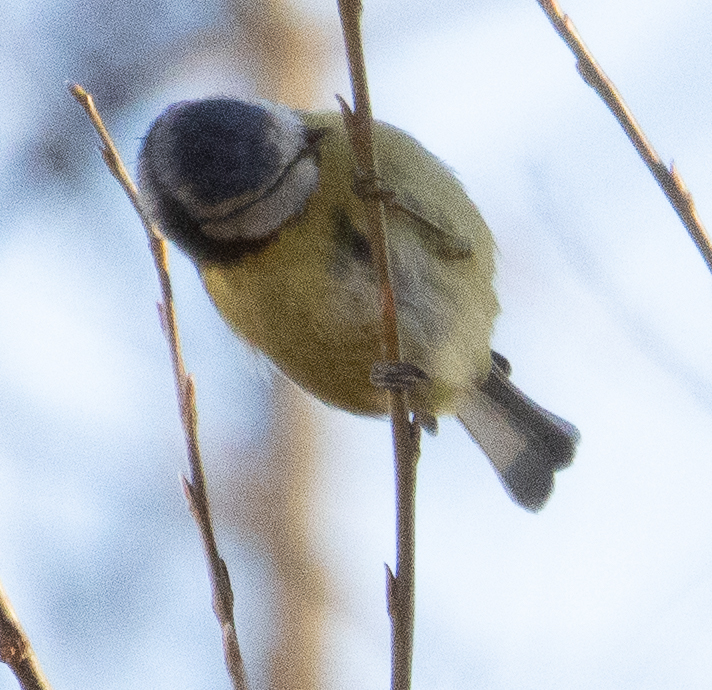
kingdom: Animalia
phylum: Chordata
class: Aves
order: Passeriformes
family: Paridae
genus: Cyanistes
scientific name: Cyanistes caeruleus
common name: Eurasian blue tit
